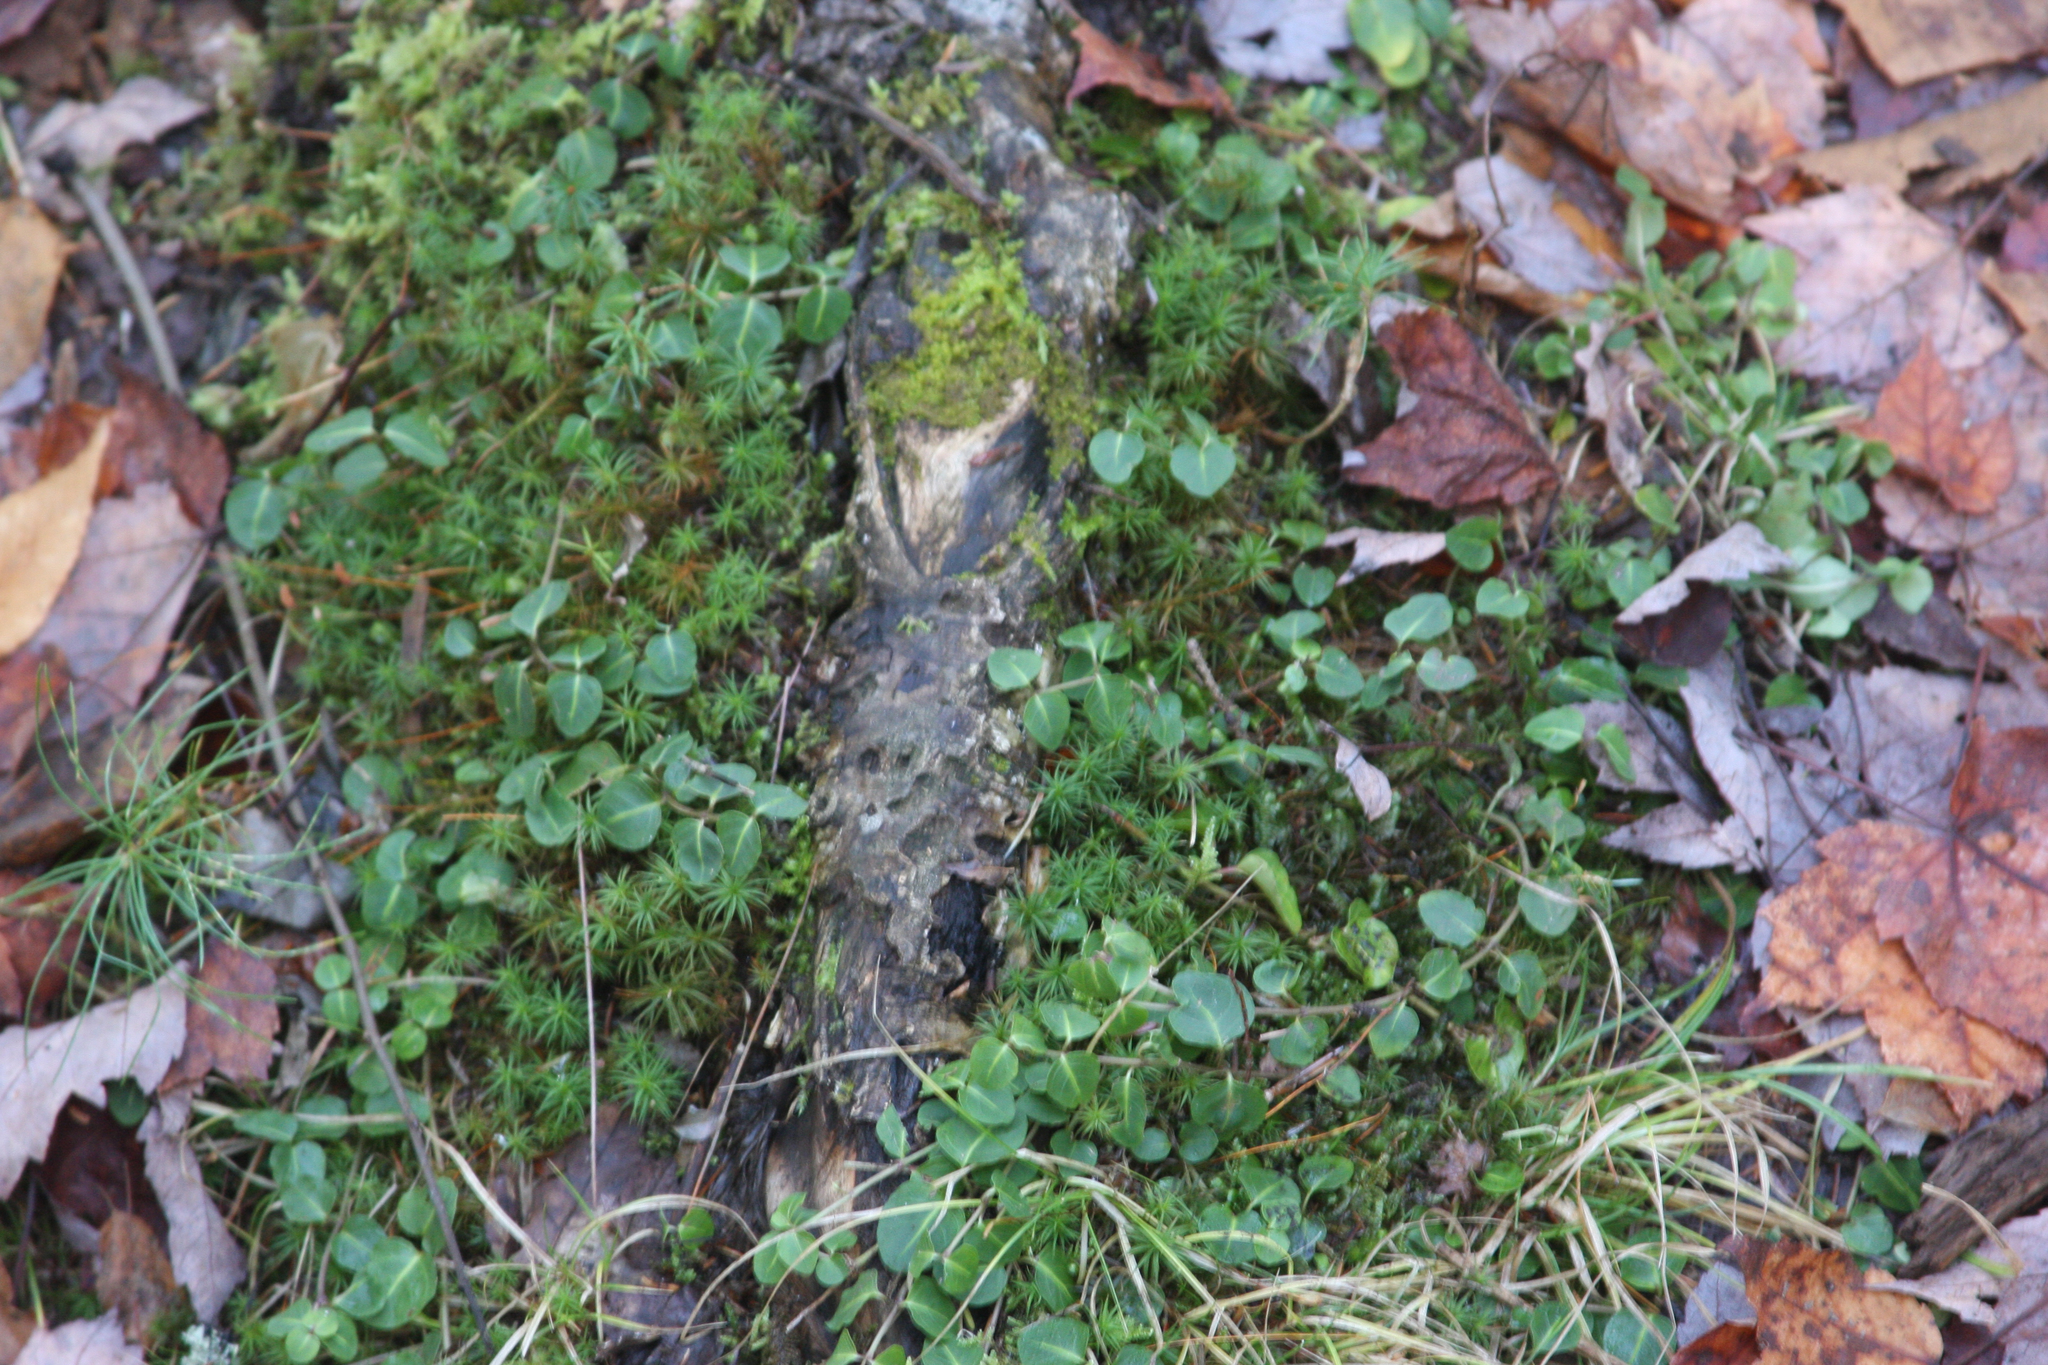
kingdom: Plantae
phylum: Tracheophyta
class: Magnoliopsida
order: Gentianales
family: Rubiaceae
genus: Mitchella
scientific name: Mitchella repens
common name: Partridge-berry
